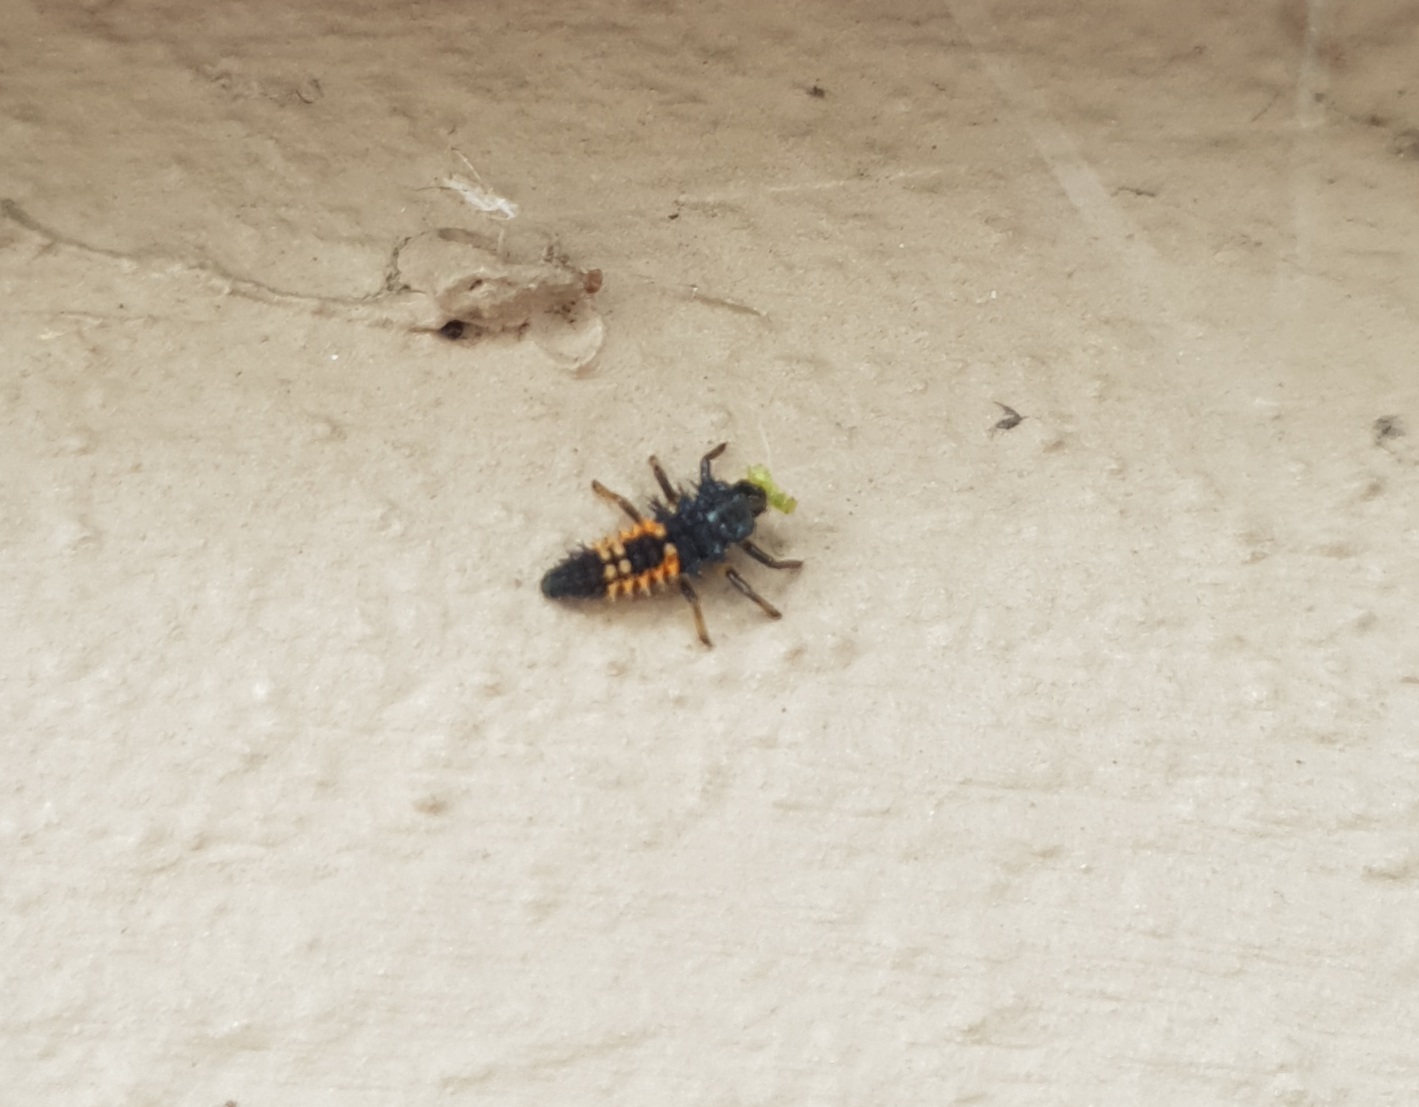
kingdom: Animalia
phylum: Arthropoda
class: Insecta
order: Coleoptera
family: Coccinellidae
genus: Harmonia
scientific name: Harmonia axyridis
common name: Harlequin ladybird
